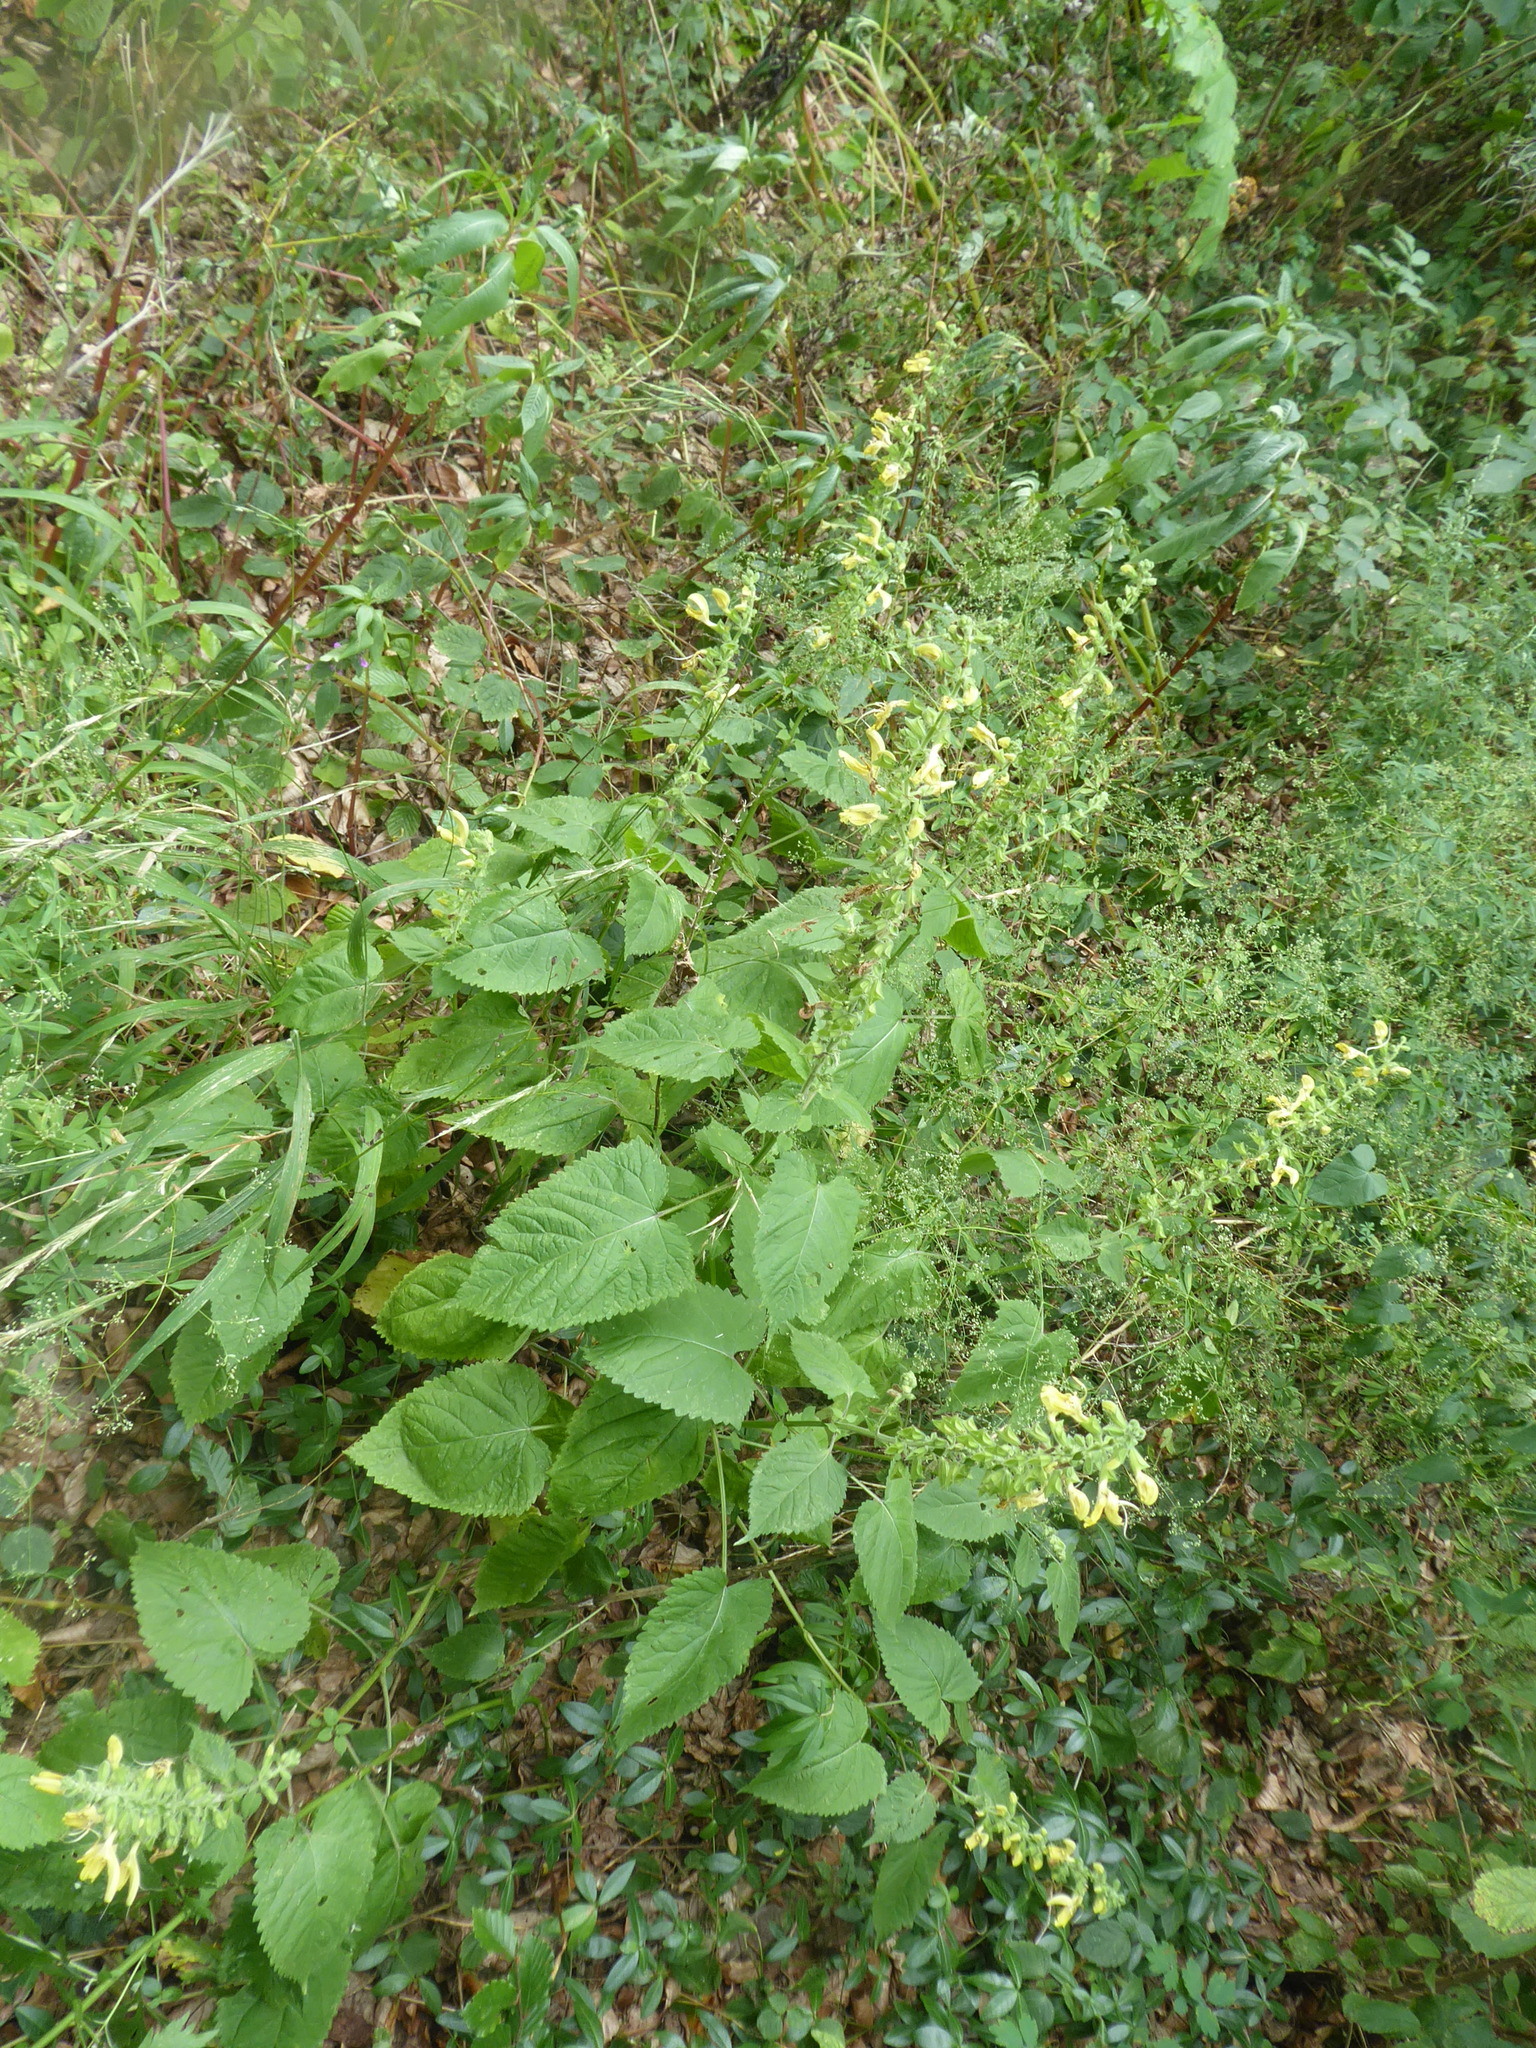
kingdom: Plantae
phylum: Tracheophyta
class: Magnoliopsida
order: Lamiales
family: Lamiaceae
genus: Salvia
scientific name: Salvia glutinosa
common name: Sticky clary
